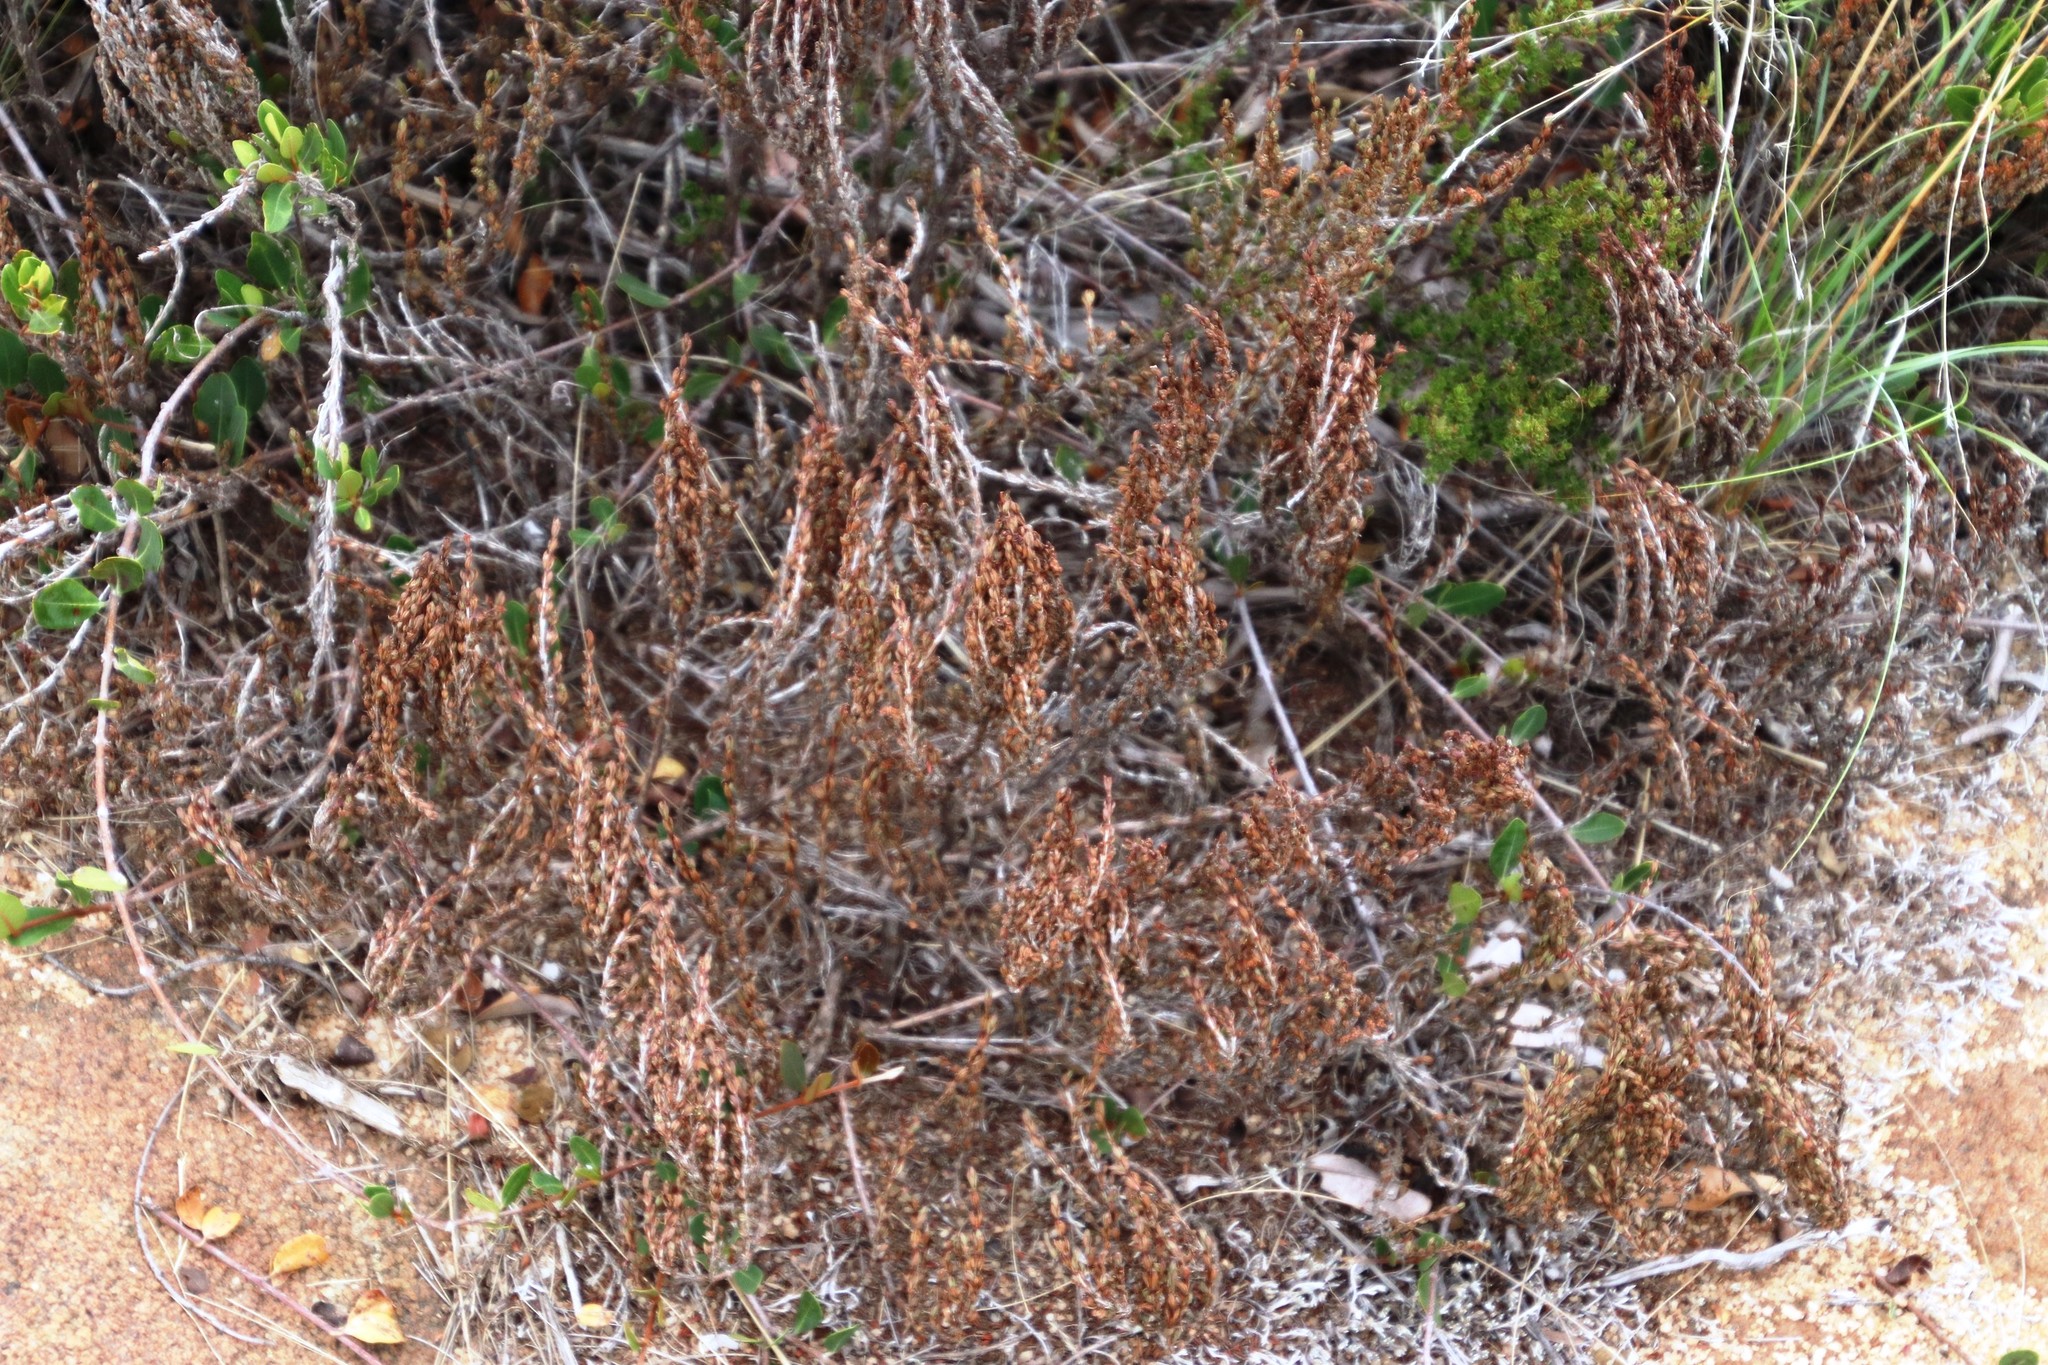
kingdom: Plantae
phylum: Tracheophyta
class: Magnoliopsida
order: Gunnerales
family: Myrothamnaceae
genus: Myrothamnus
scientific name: Myrothamnus flabellifolius
